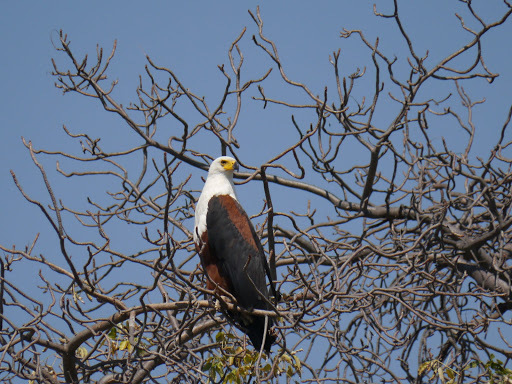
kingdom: Animalia
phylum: Chordata
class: Aves
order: Accipitriformes
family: Accipitridae
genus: Haliaeetus
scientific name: Haliaeetus vocifer
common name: African fish eagle
